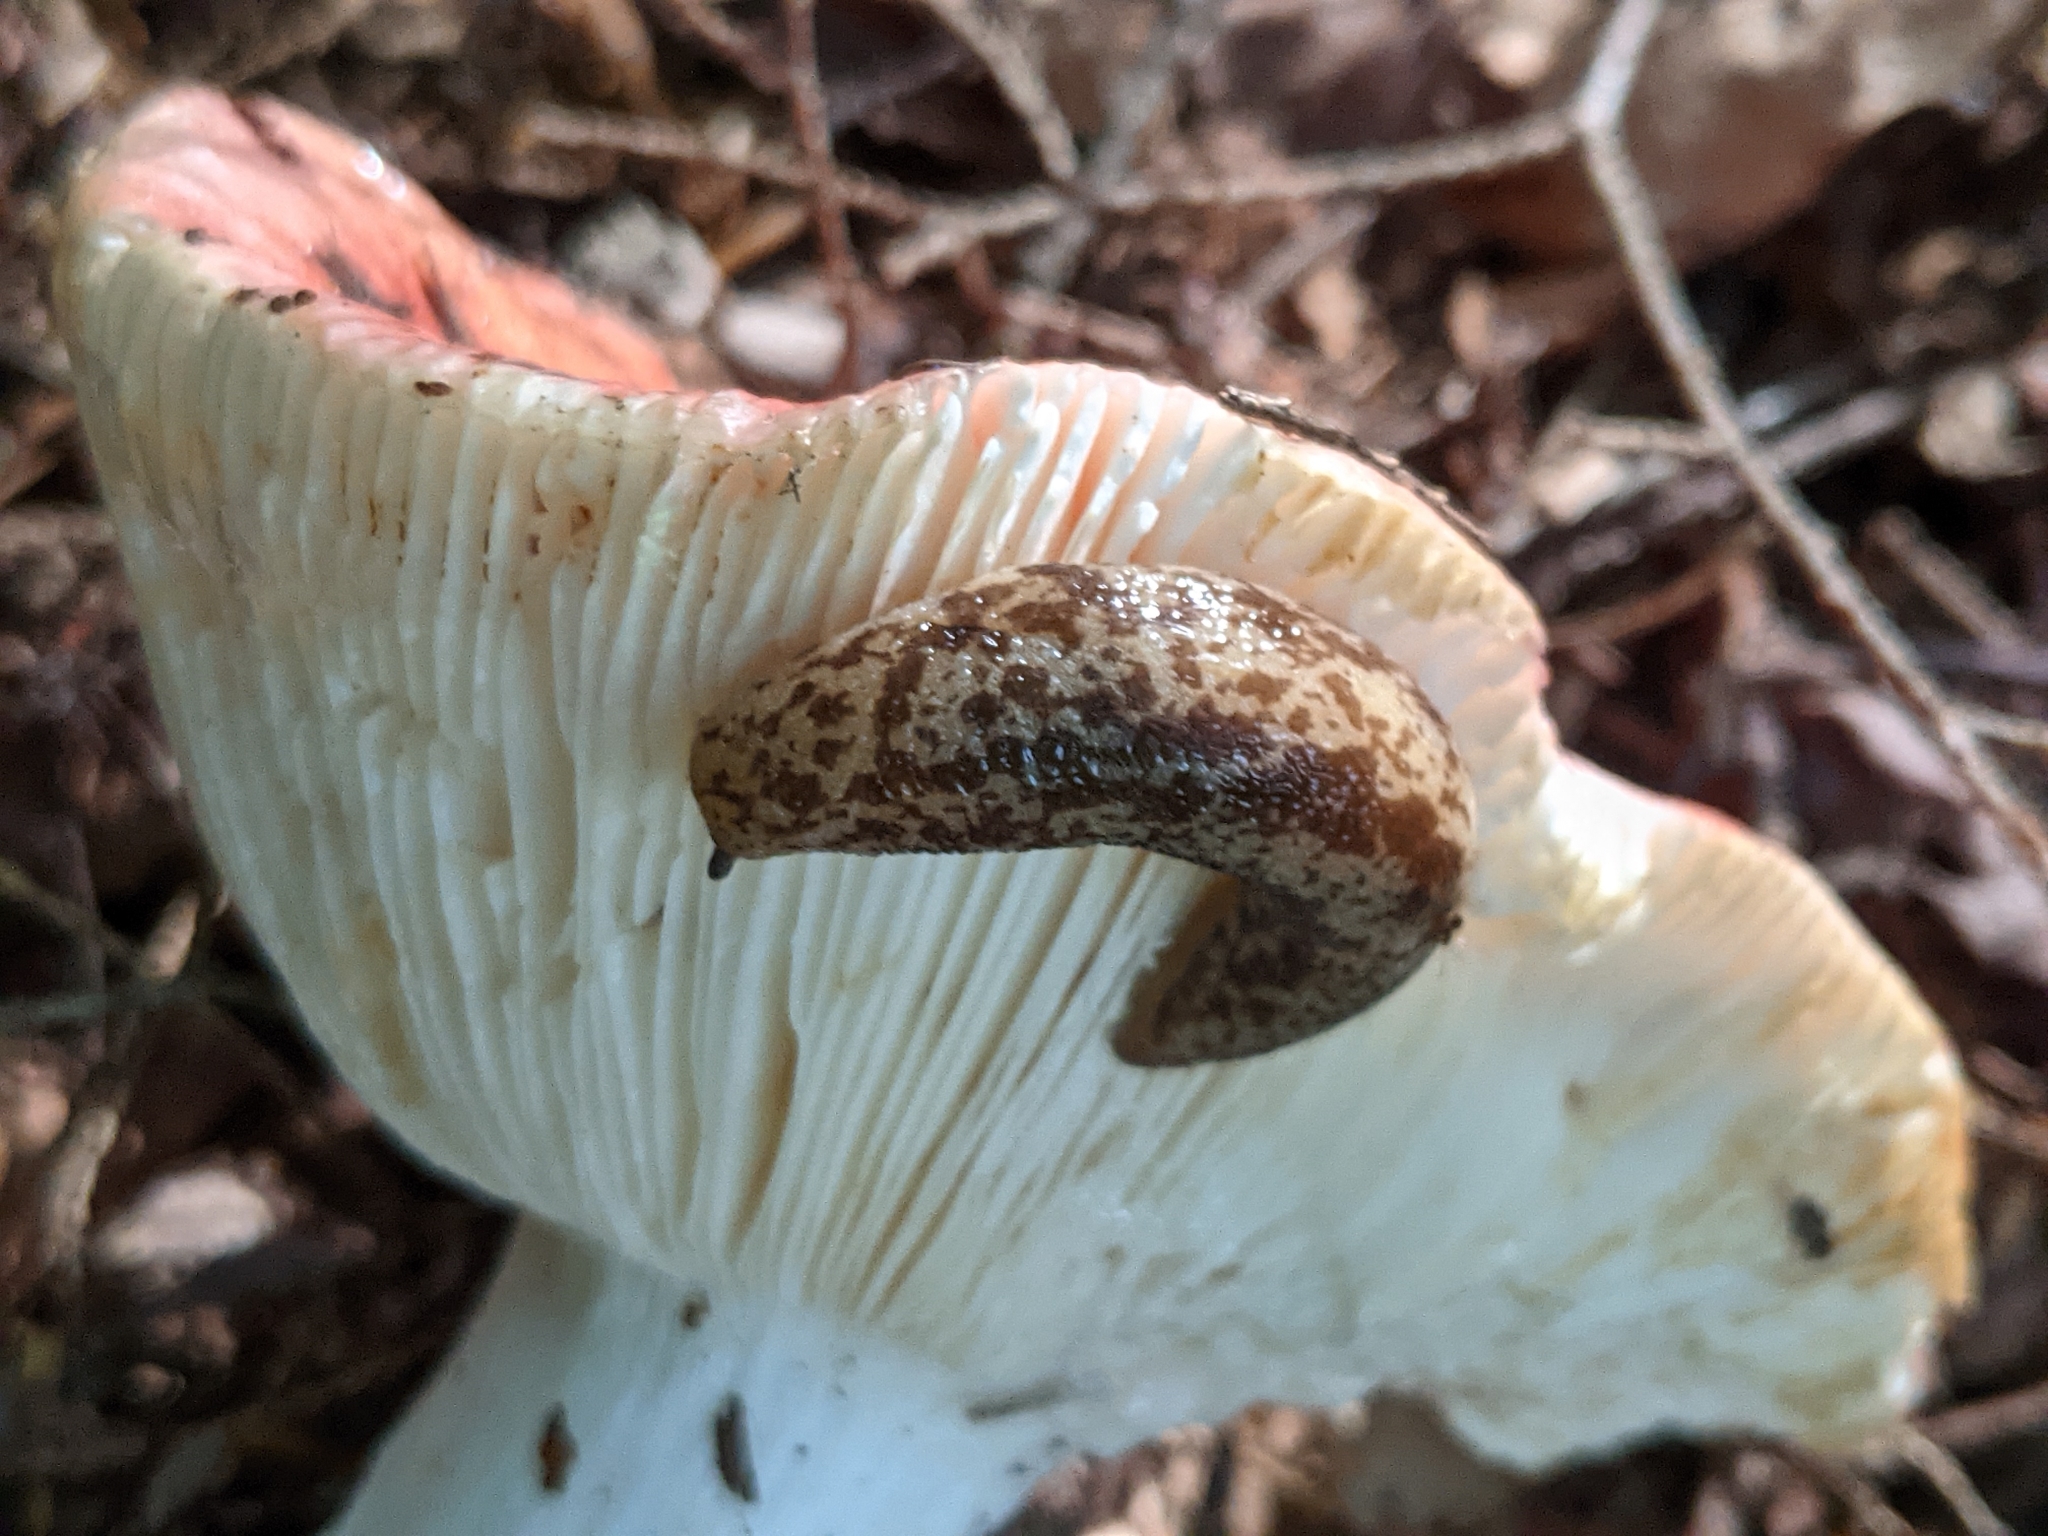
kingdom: Animalia
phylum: Mollusca
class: Gastropoda
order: Stylommatophora
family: Philomycidae
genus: Philomycus
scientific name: Philomycus flexuolaris
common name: Winding mantleslug
